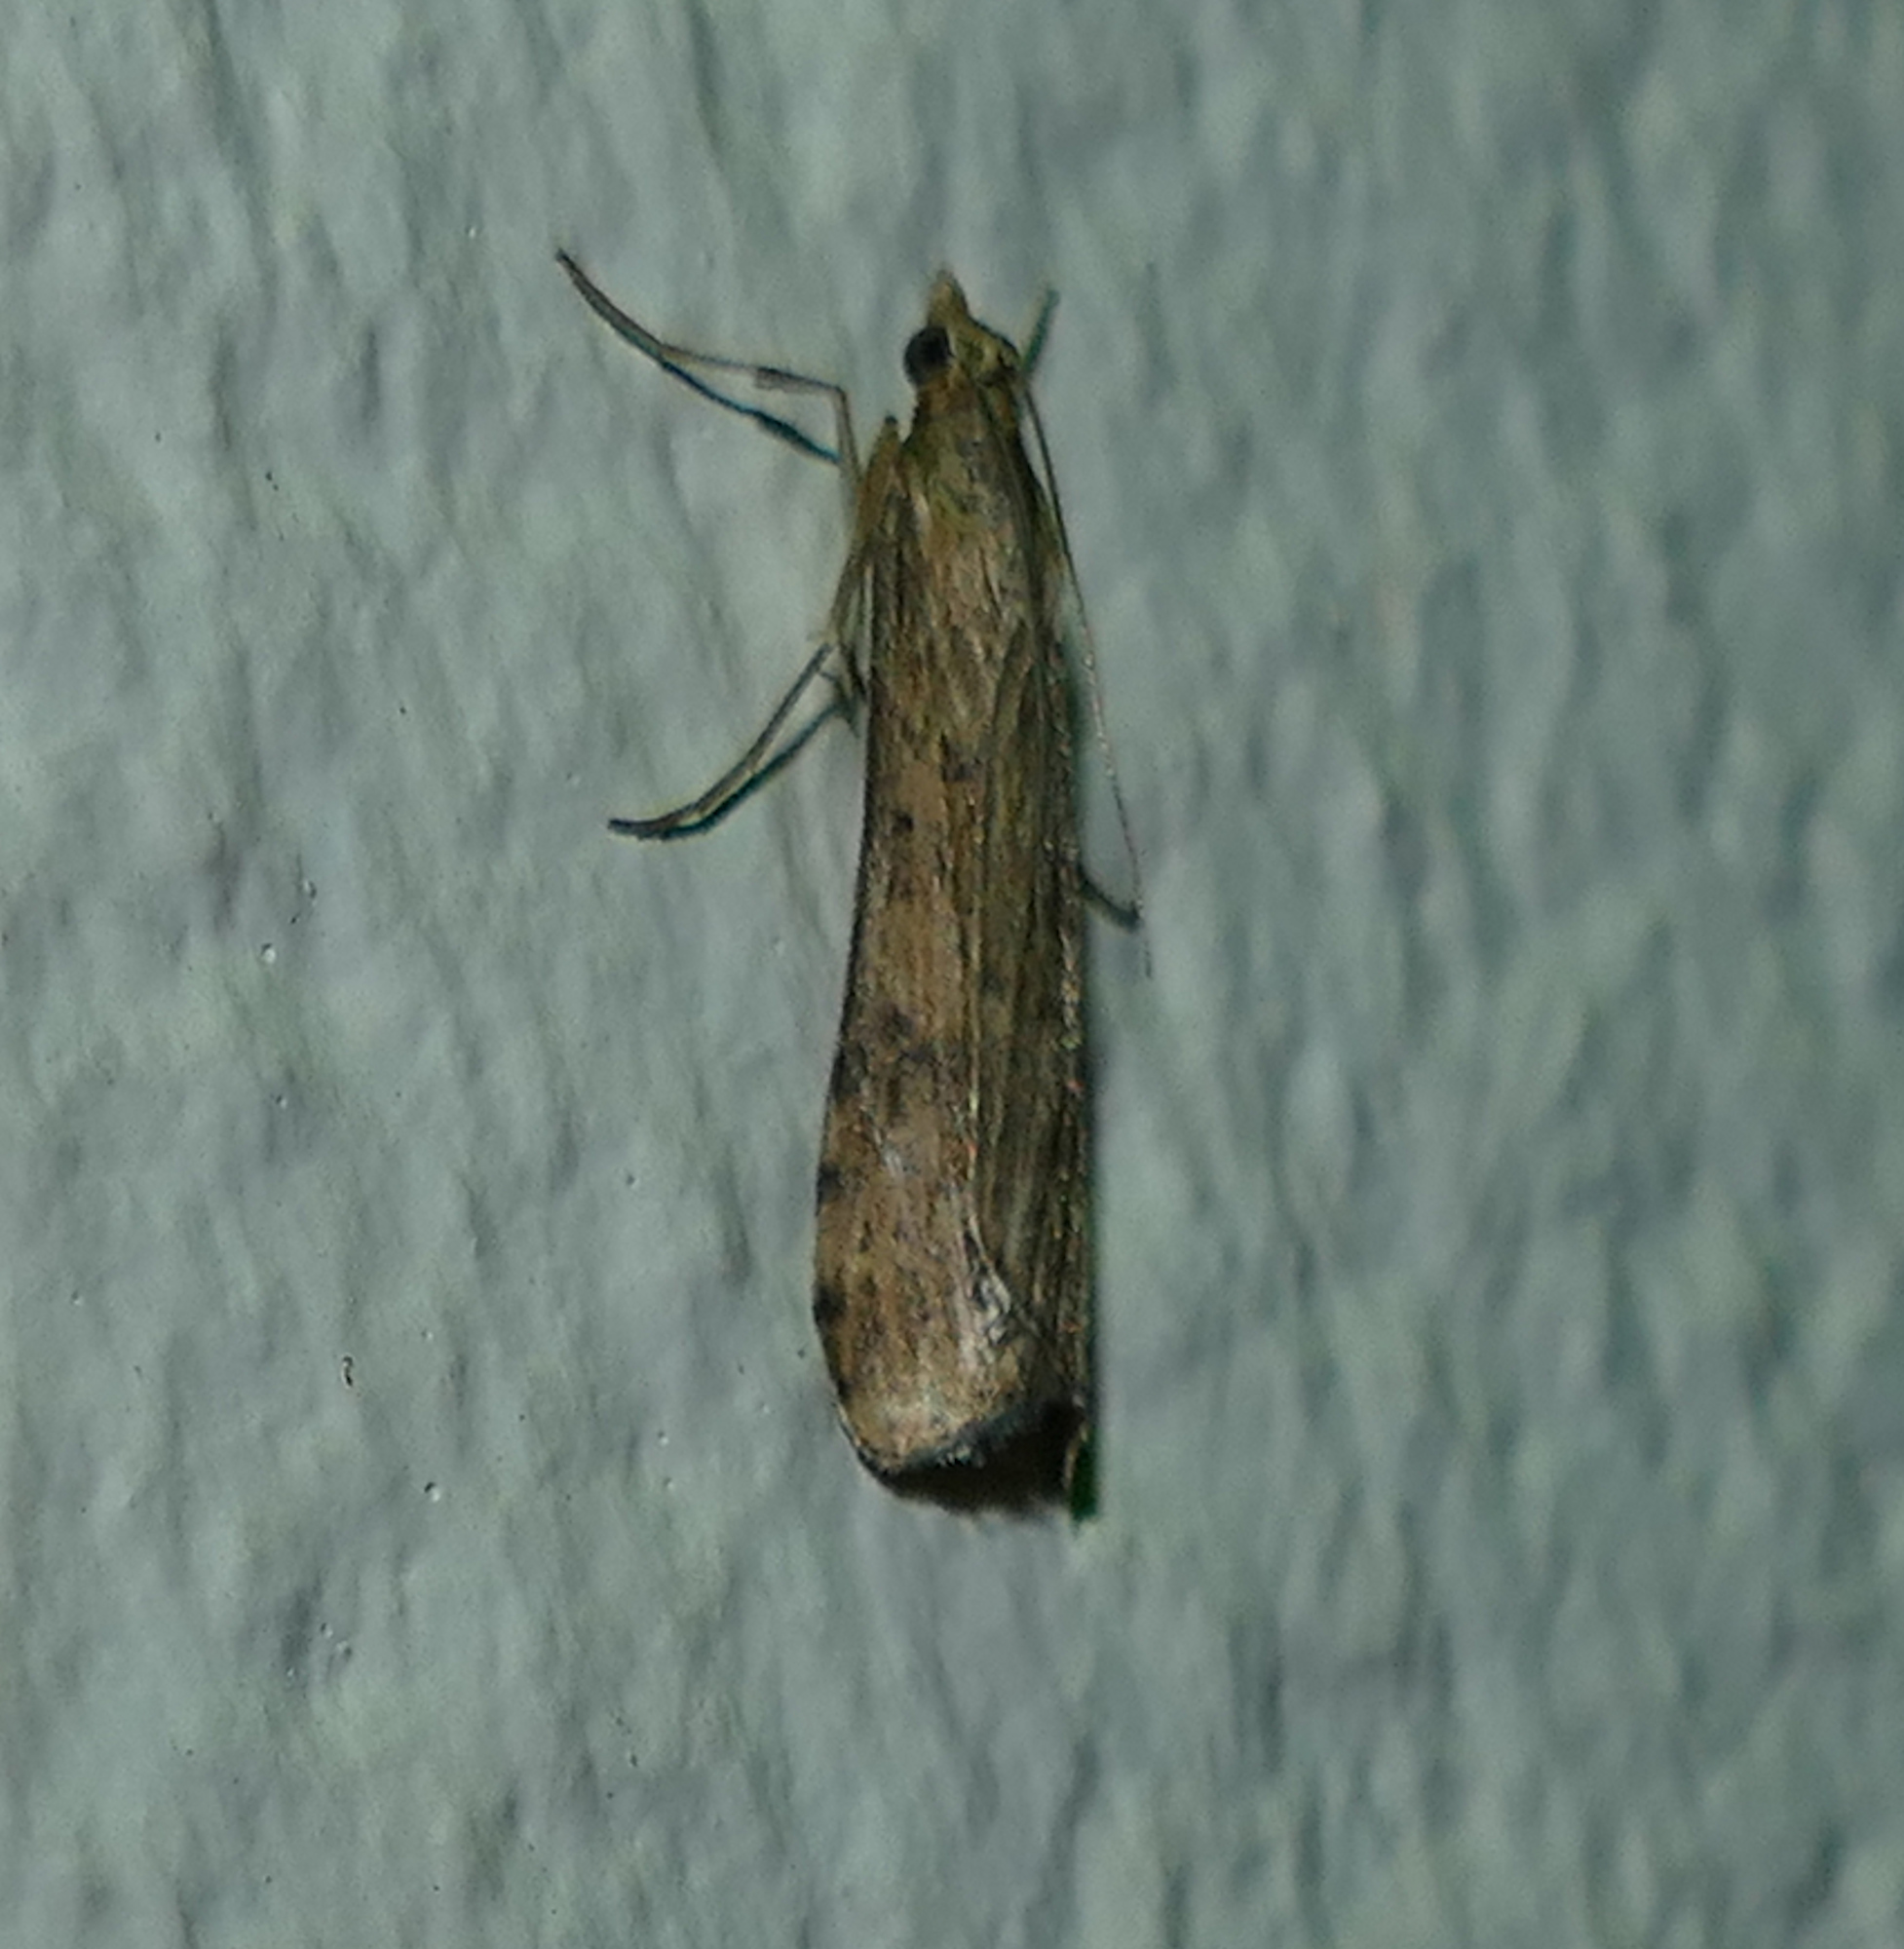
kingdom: Animalia
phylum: Arthropoda
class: Insecta
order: Lepidoptera
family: Crambidae
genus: Nomophila
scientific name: Nomophila nearctica
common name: American rush veneer
